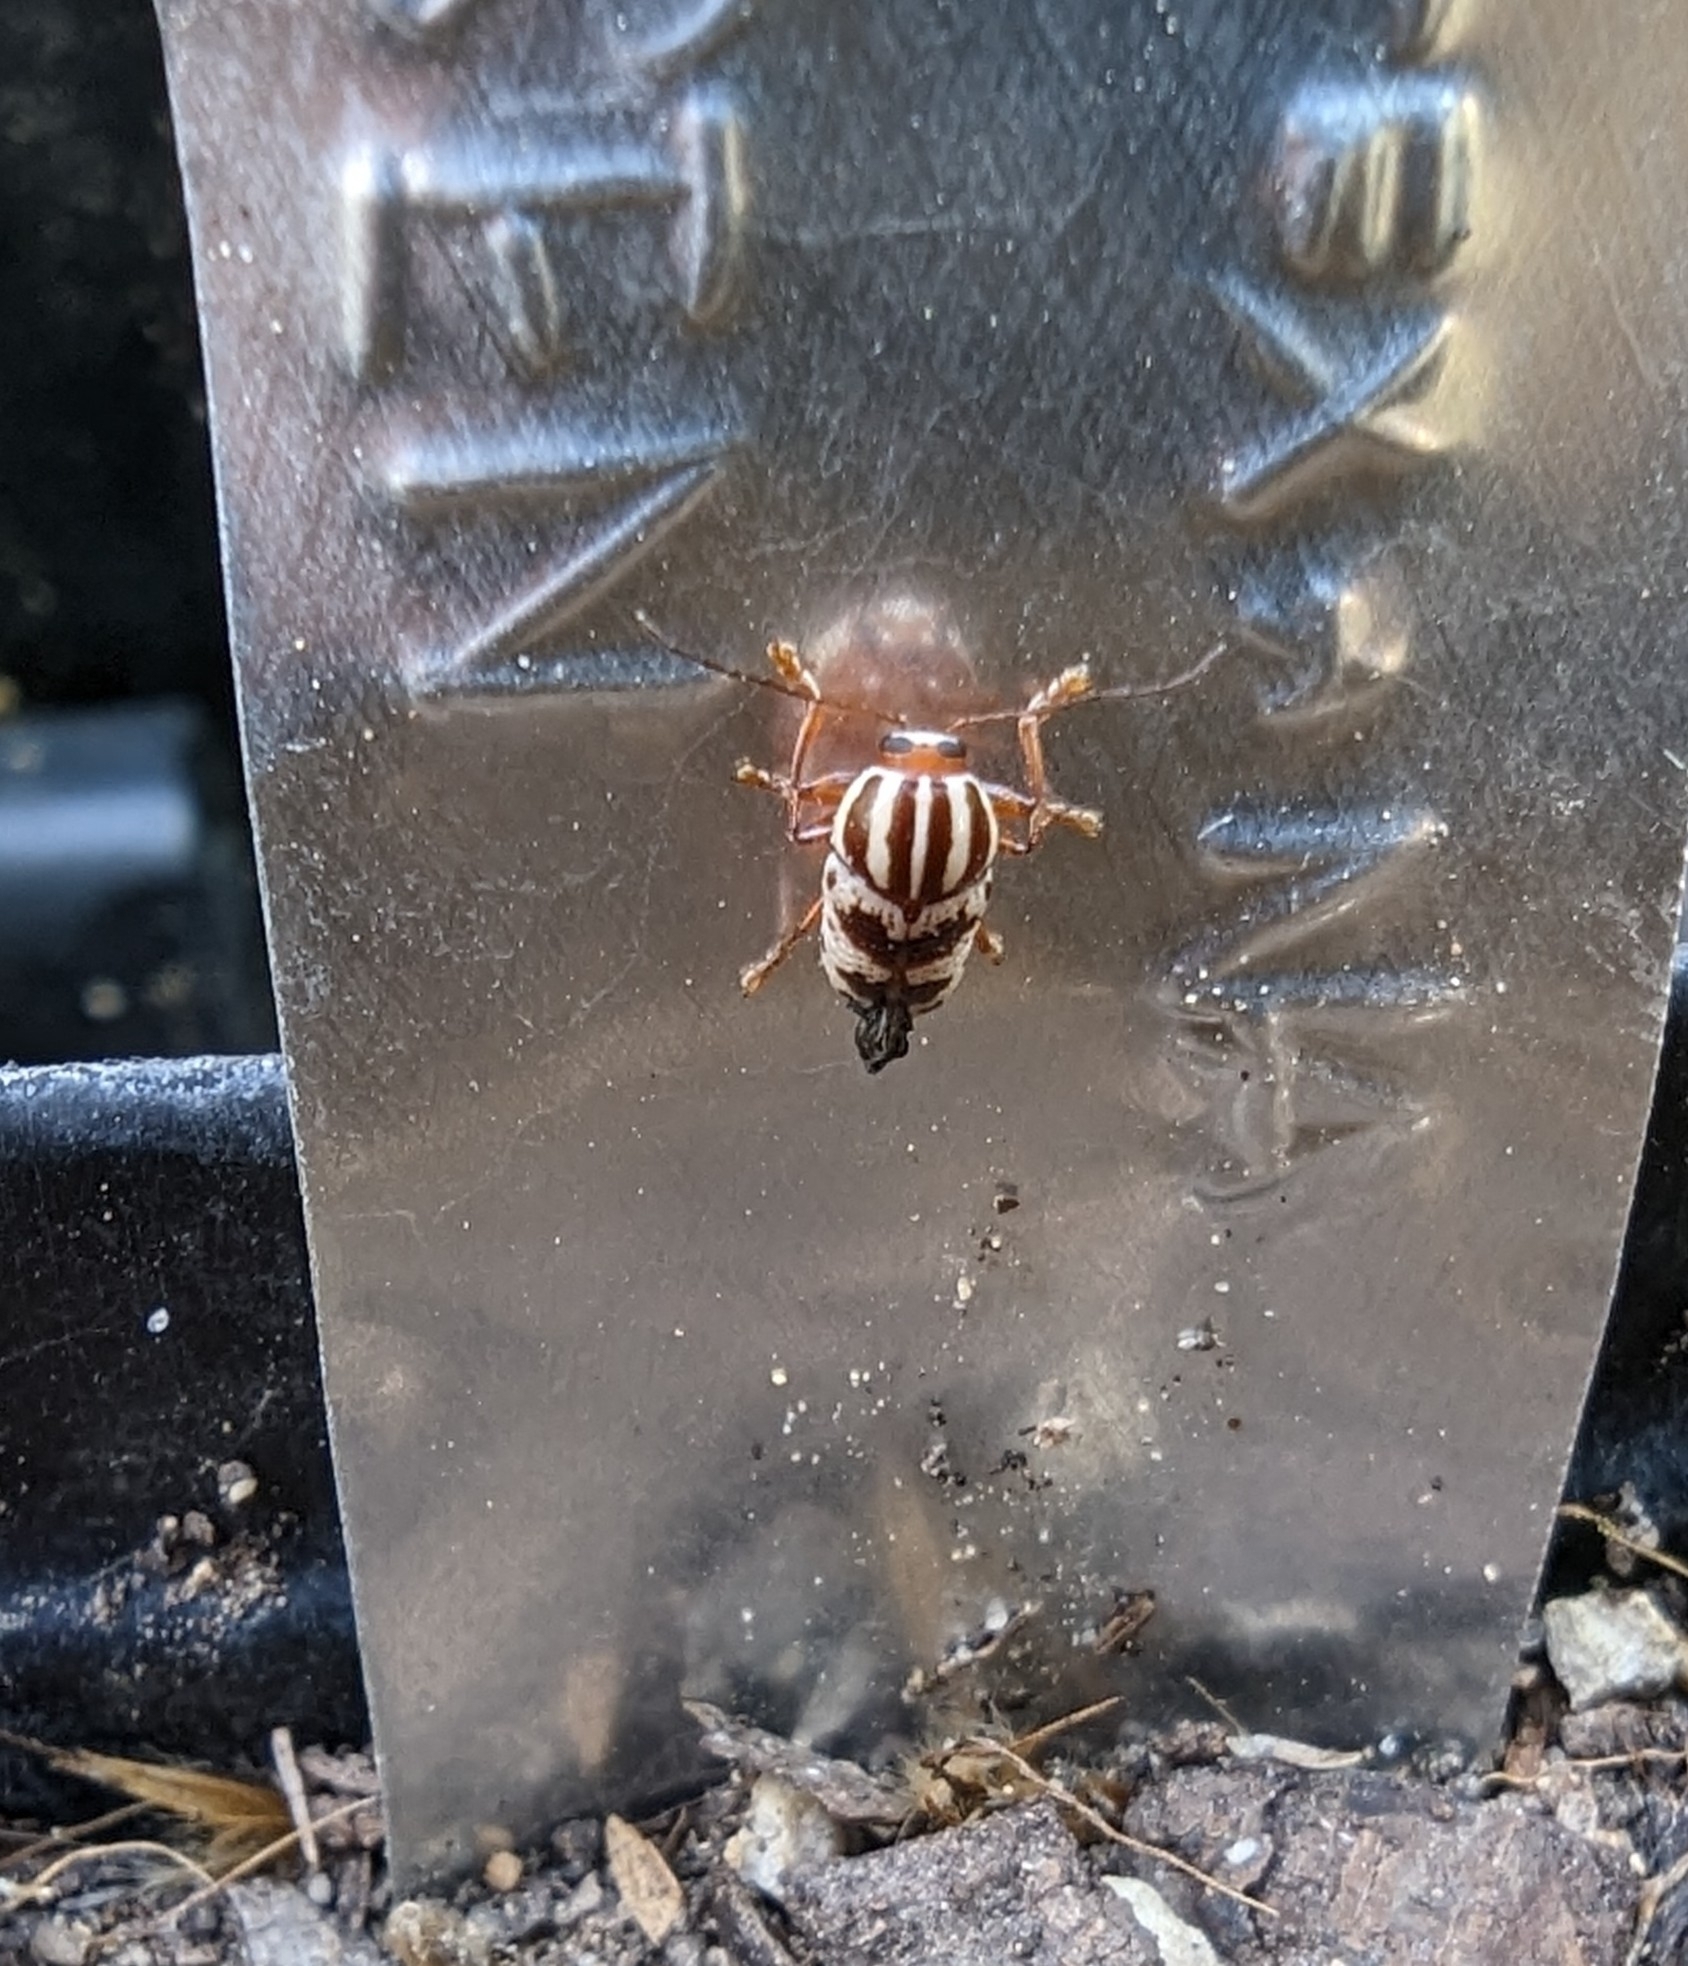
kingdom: Animalia
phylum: Arthropoda
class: Insecta
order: Coleoptera
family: Chrysomelidae
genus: Cryptocephalus
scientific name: Cryptocephalus leucomelas
